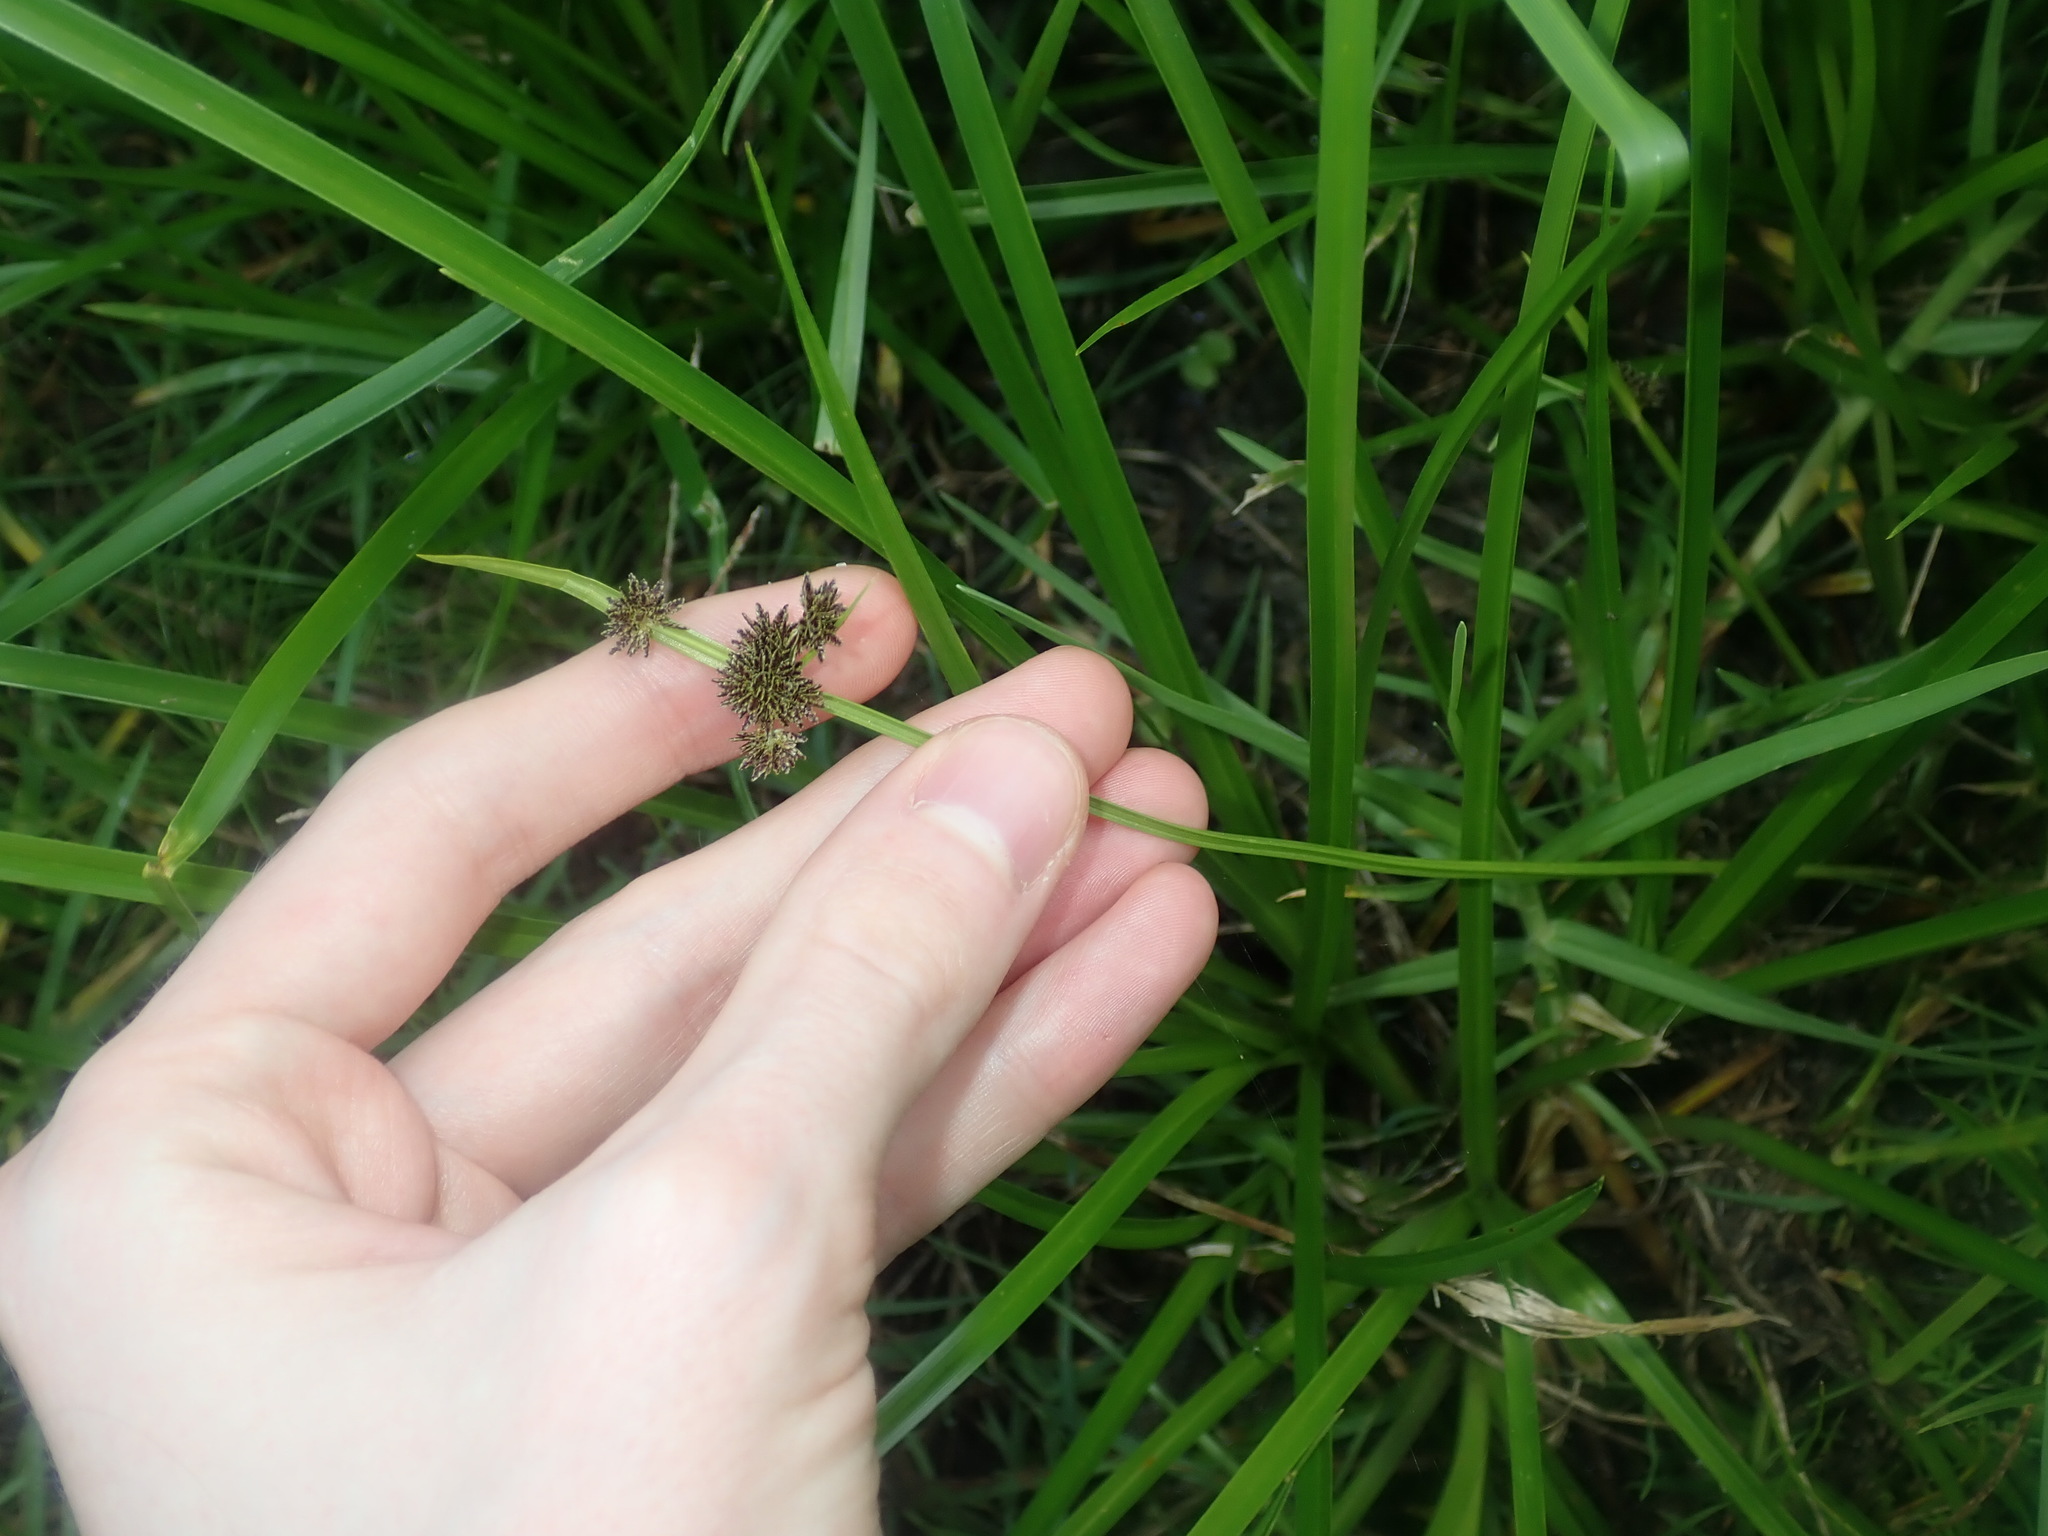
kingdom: Plantae
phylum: Tracheophyta
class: Liliopsida
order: Poales
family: Cyperaceae
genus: Cyperus
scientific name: Cyperus difformis
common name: Variable flatsedge
